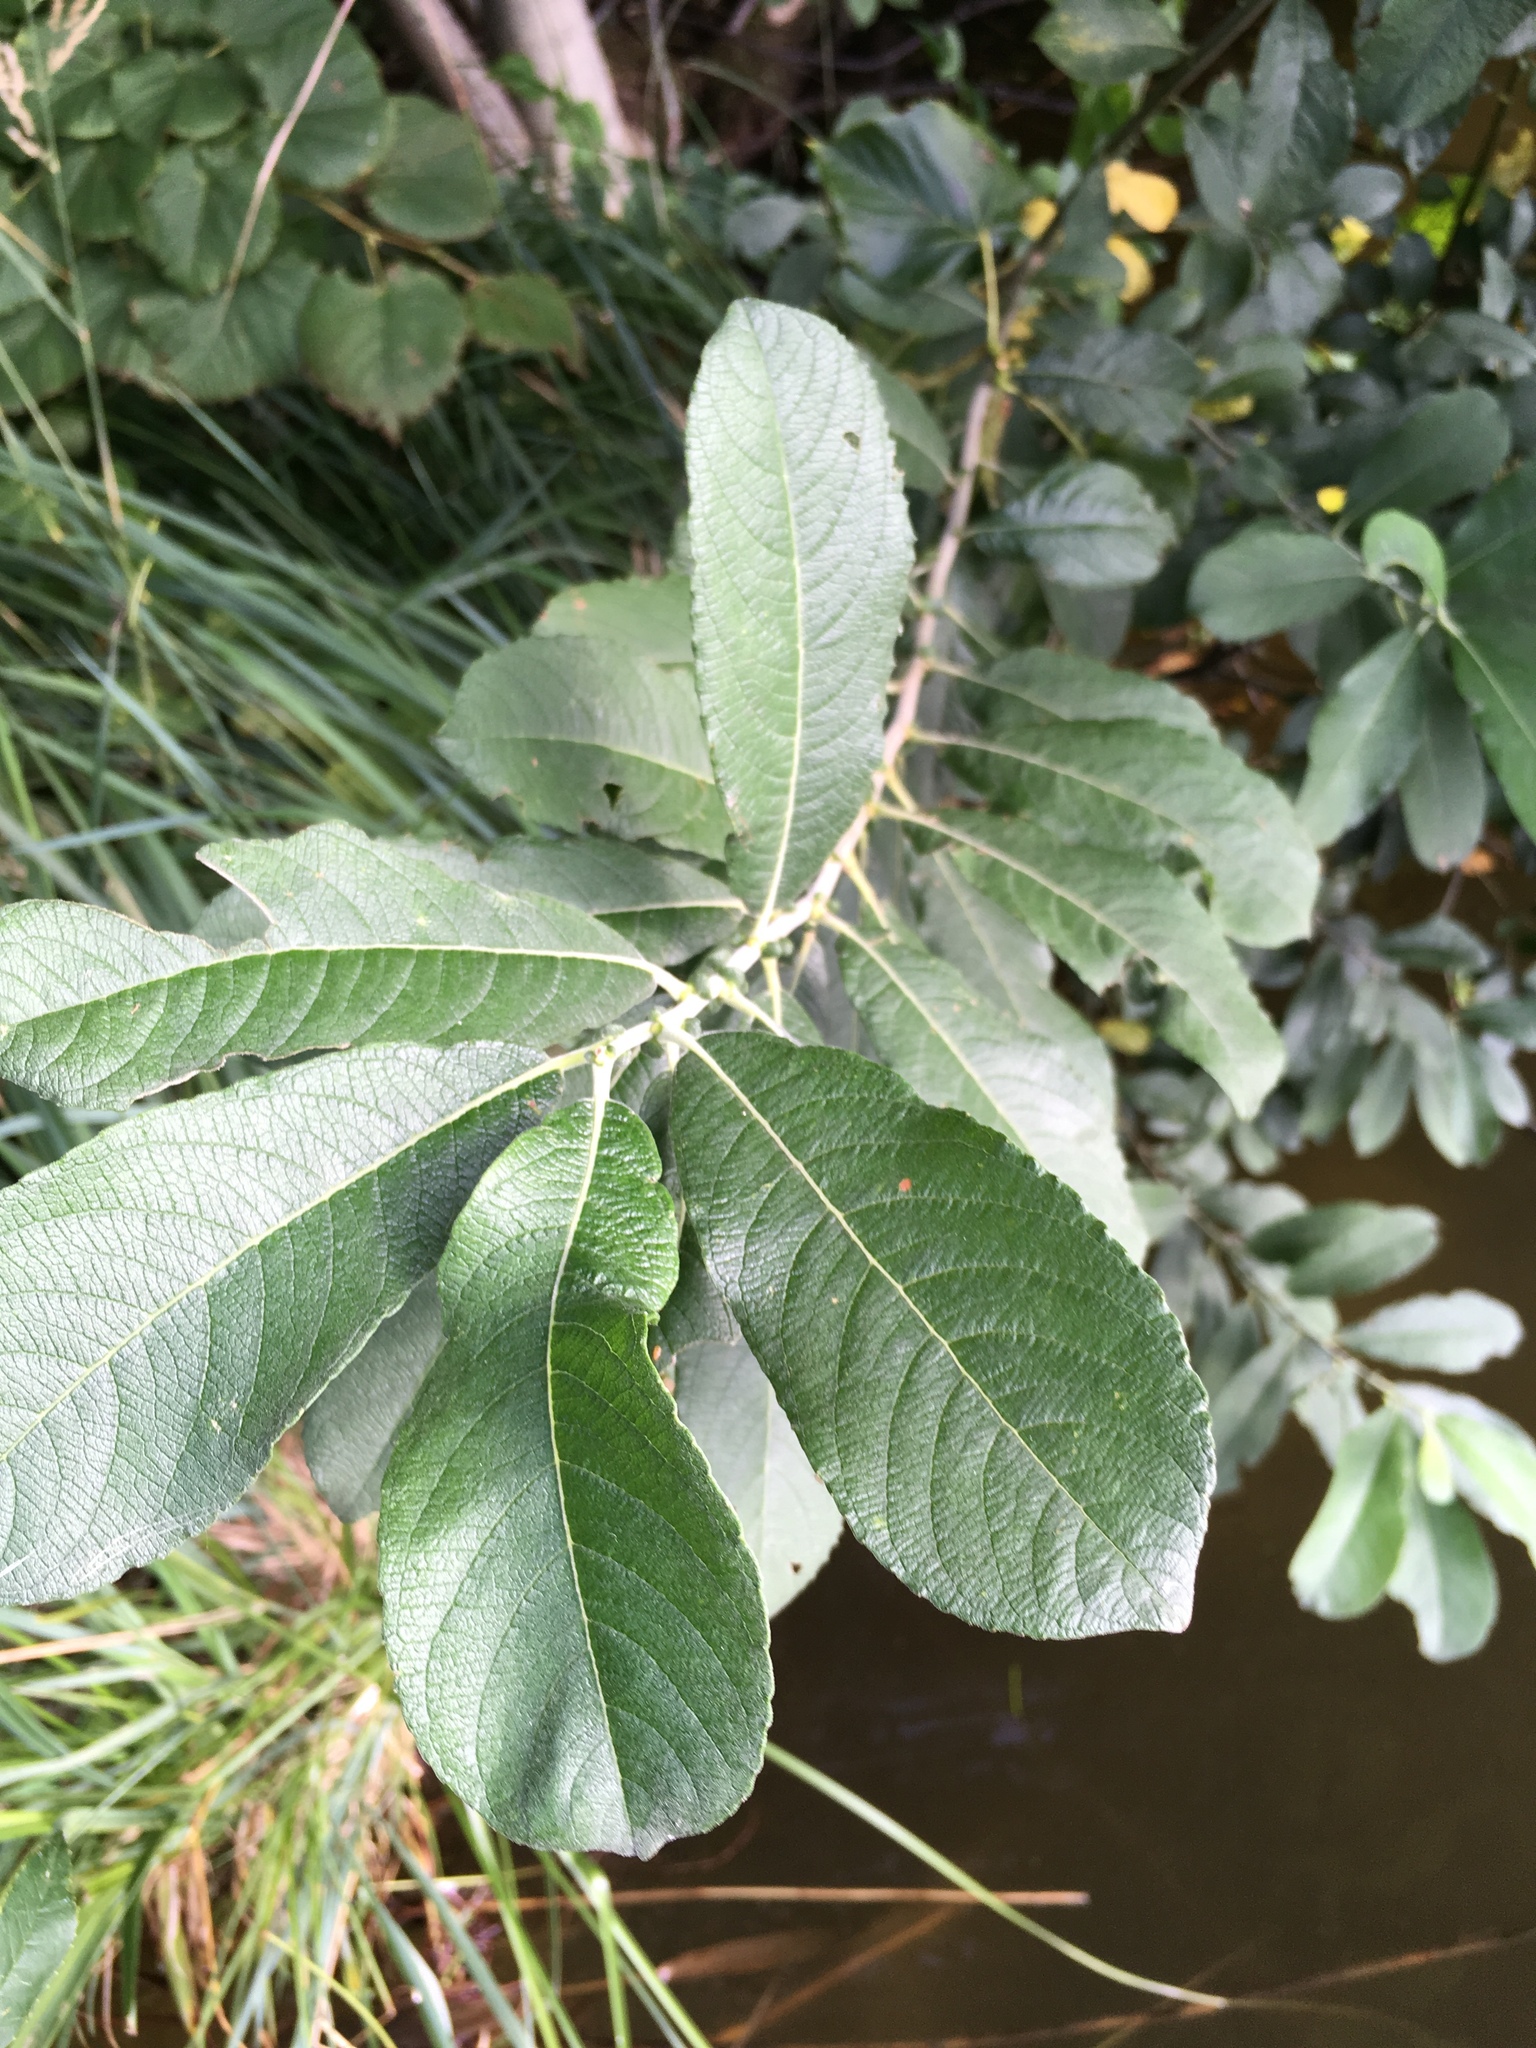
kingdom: Plantae
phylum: Tracheophyta
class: Magnoliopsida
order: Malpighiales
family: Salicaceae
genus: Salix
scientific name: Salix cinerea
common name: Common sallow
